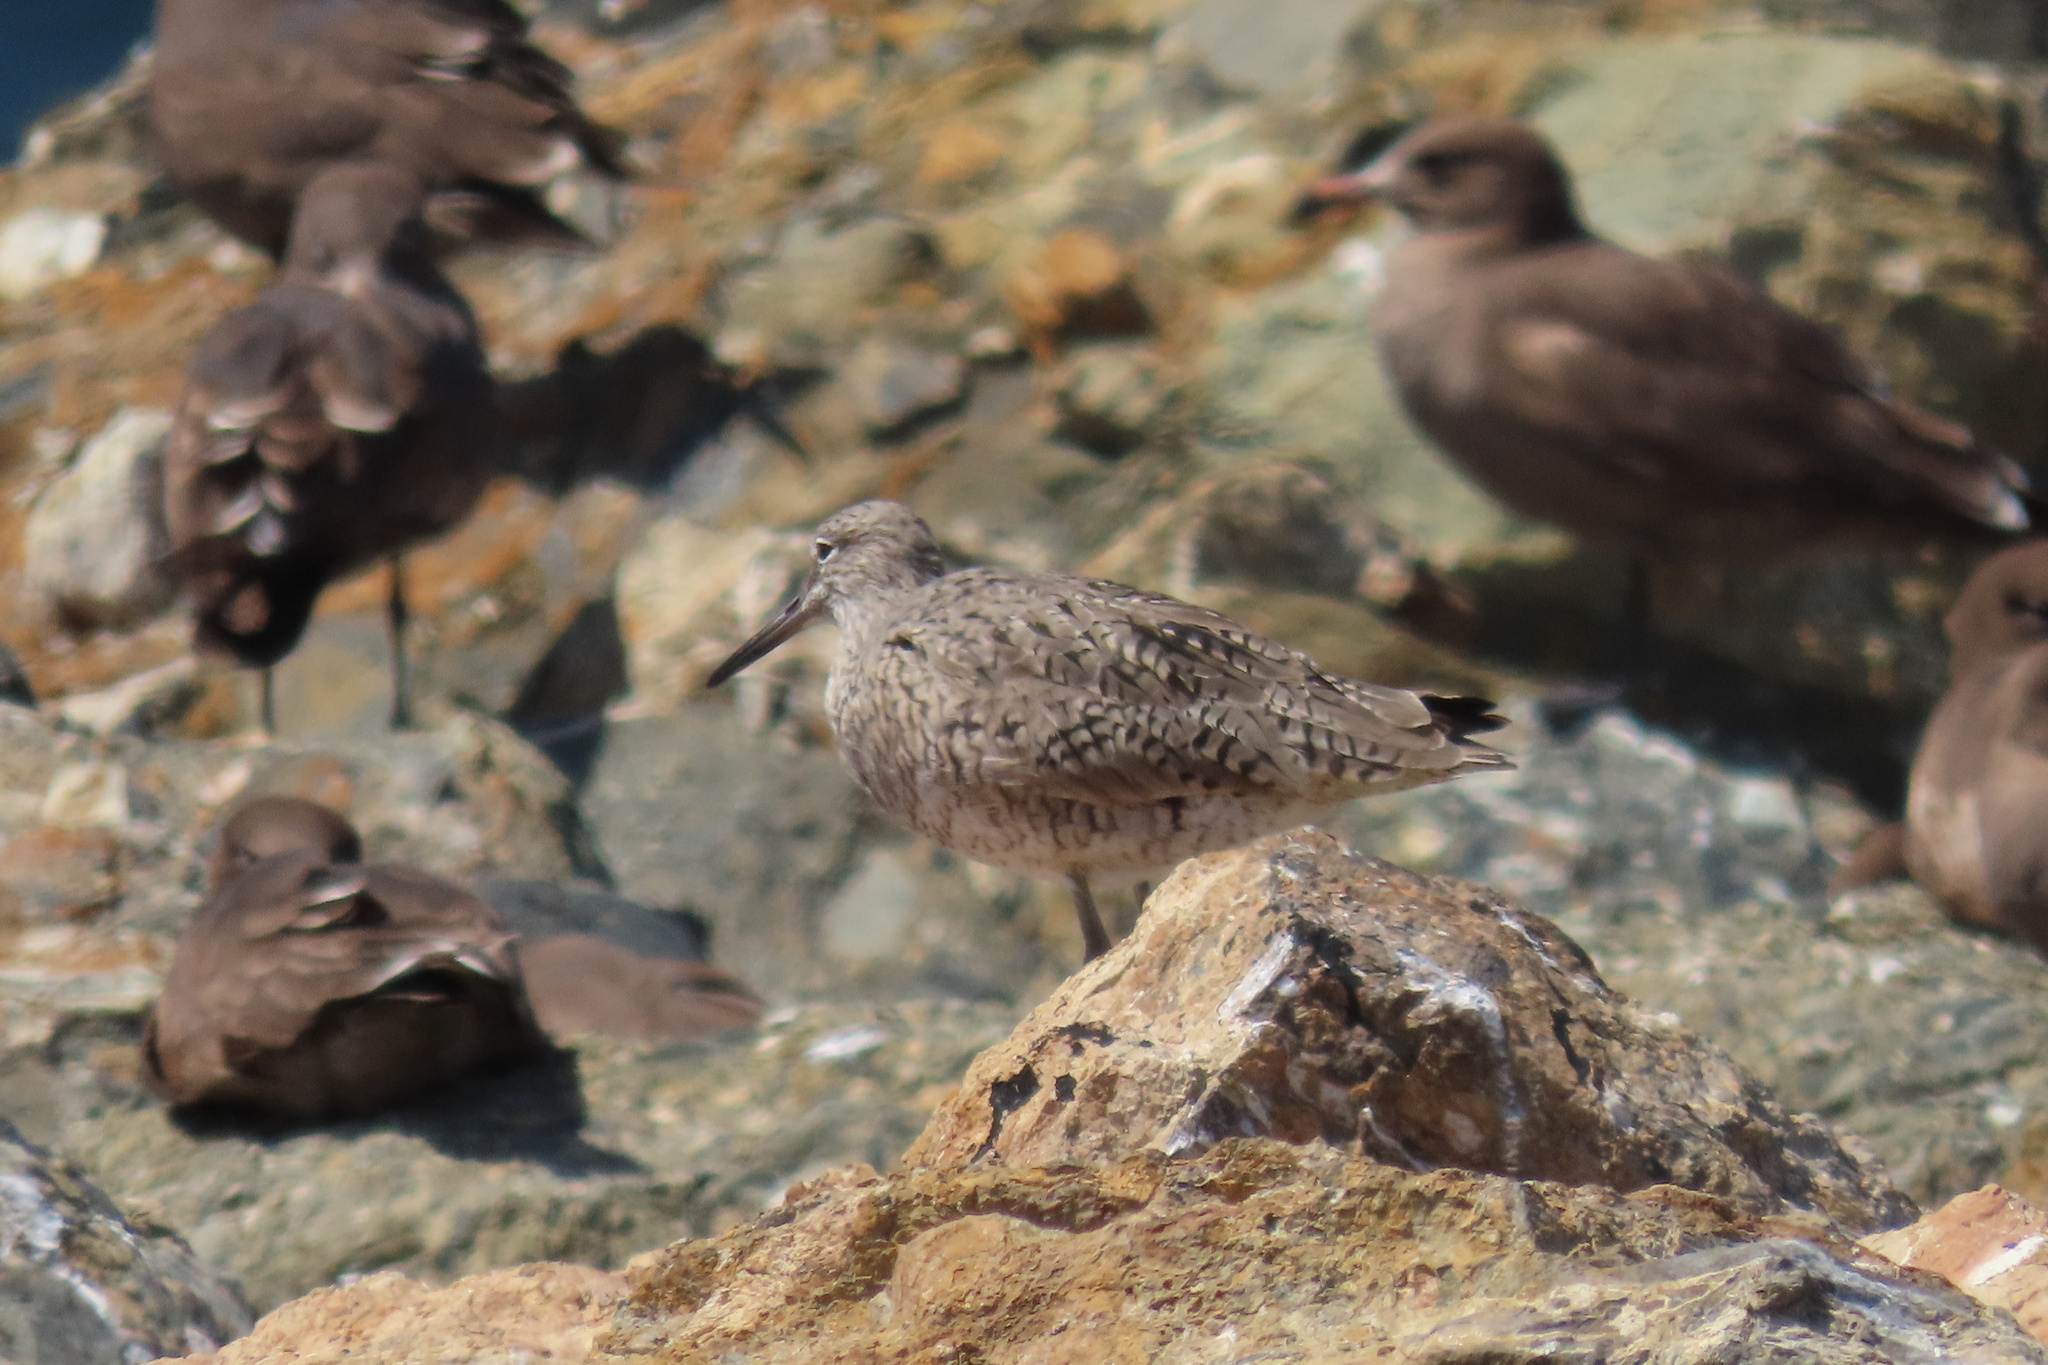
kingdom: Animalia
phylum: Chordata
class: Aves
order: Charadriiformes
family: Scolopacidae
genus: Tringa
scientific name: Tringa semipalmata
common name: Willet
